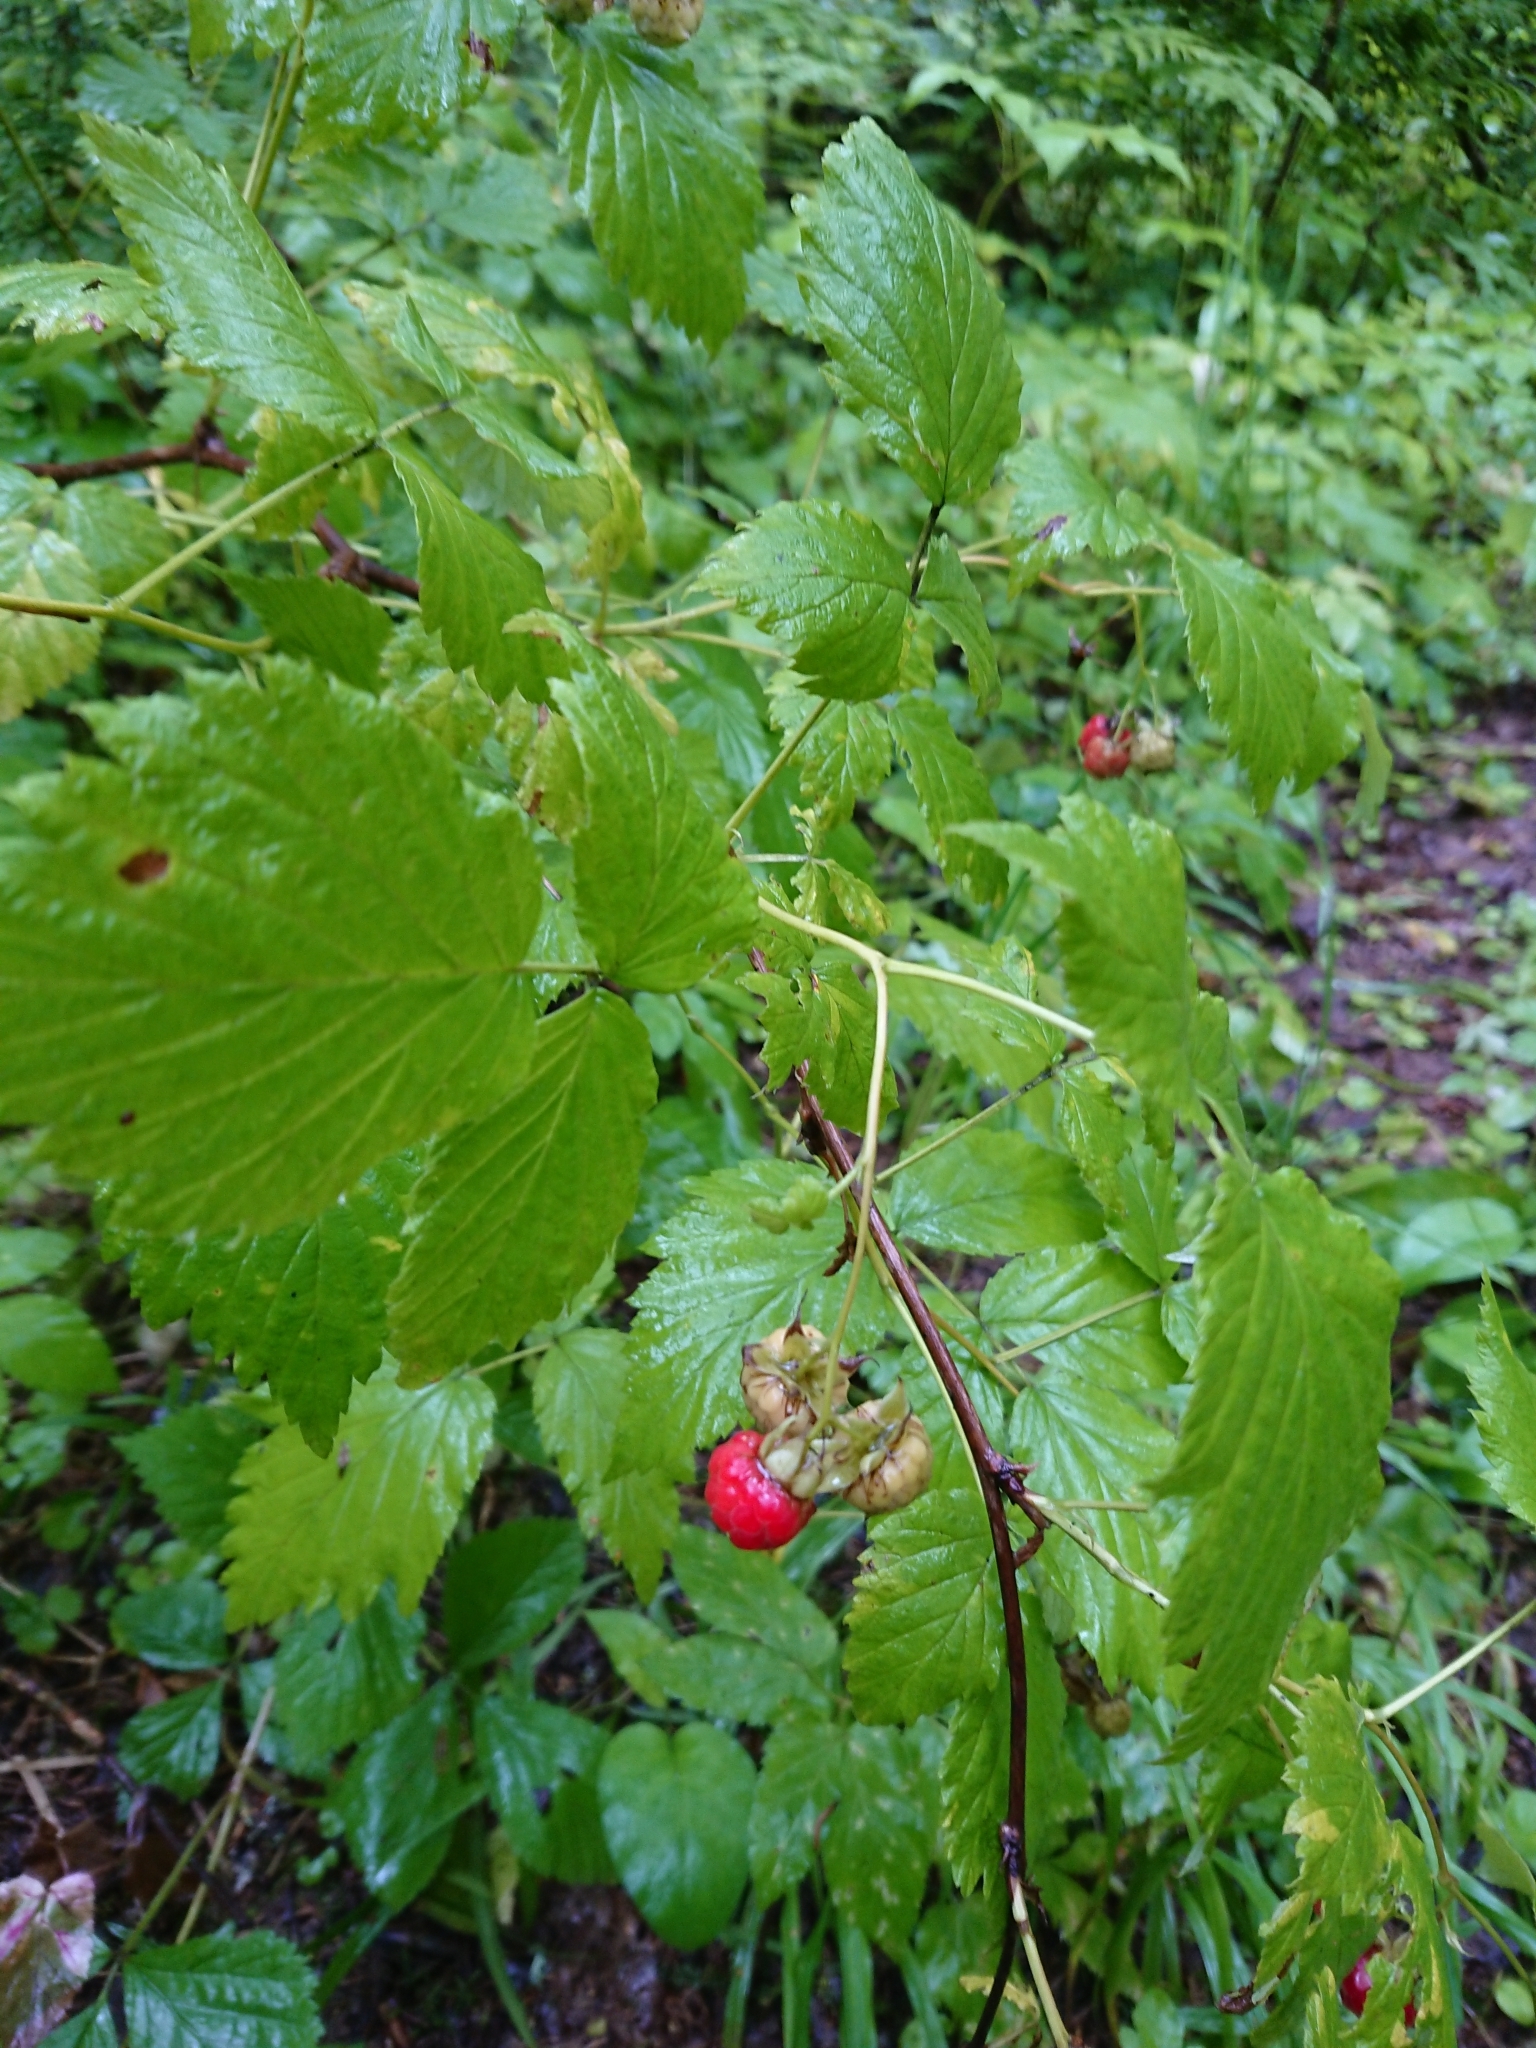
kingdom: Plantae
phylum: Tracheophyta
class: Magnoliopsida
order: Rosales
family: Rosaceae
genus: Rubus
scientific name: Rubus idaeus
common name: Raspberry
